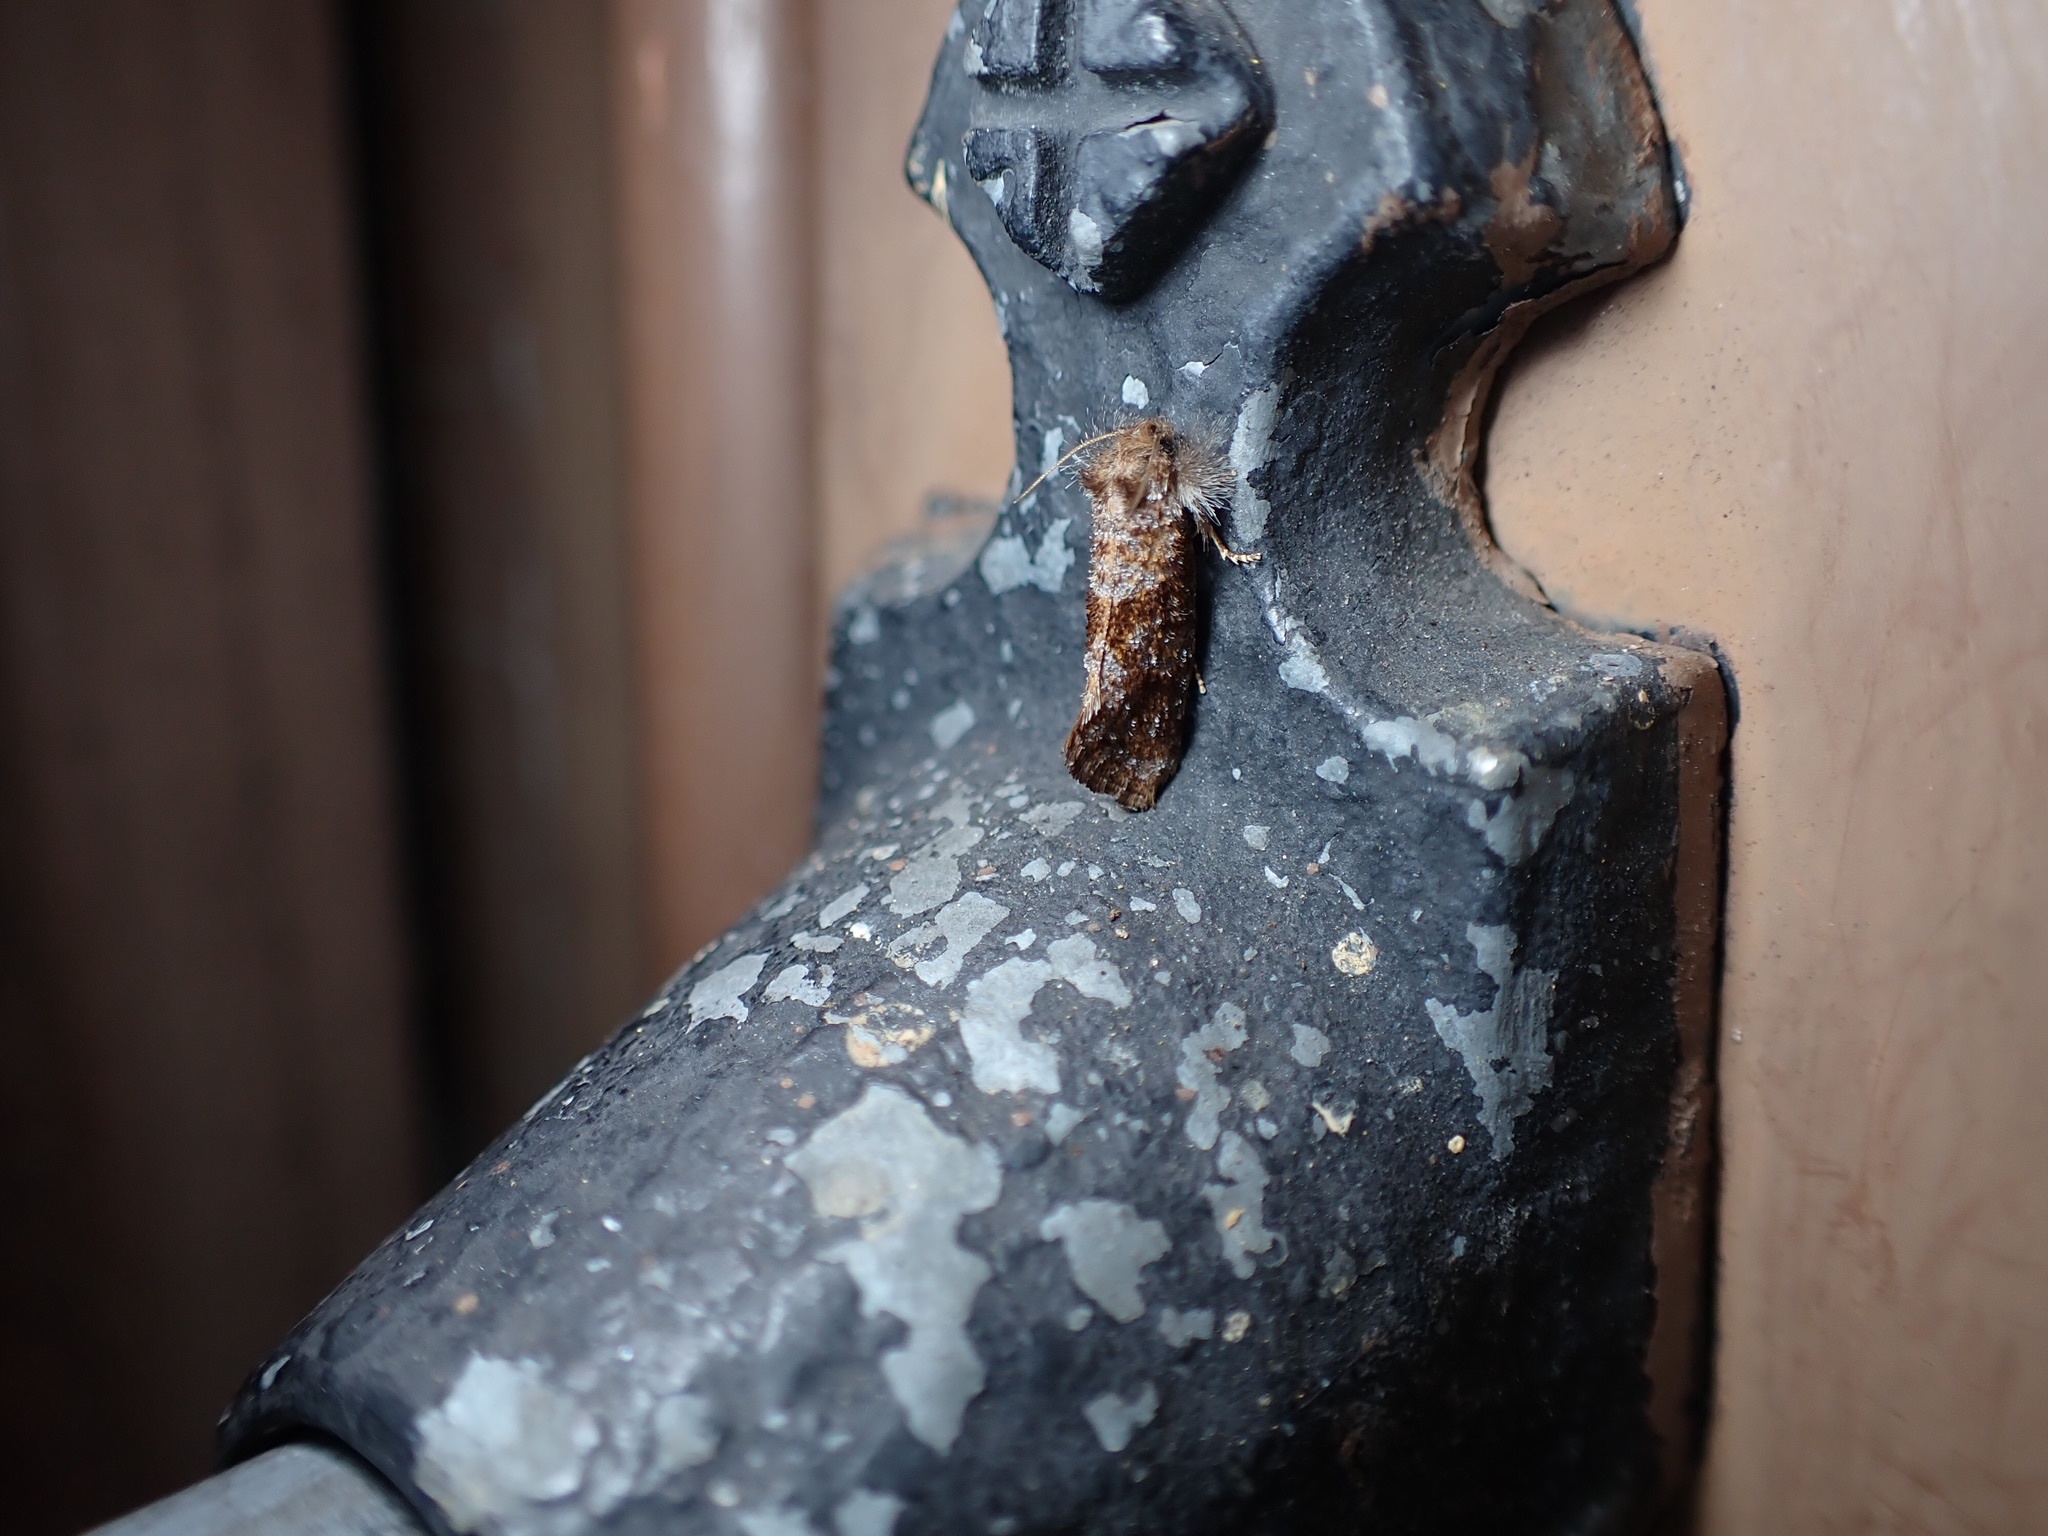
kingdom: Animalia
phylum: Arthropoda
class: Insecta
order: Lepidoptera
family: Tineidae
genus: Acrolophus
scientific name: Acrolophus panamae
